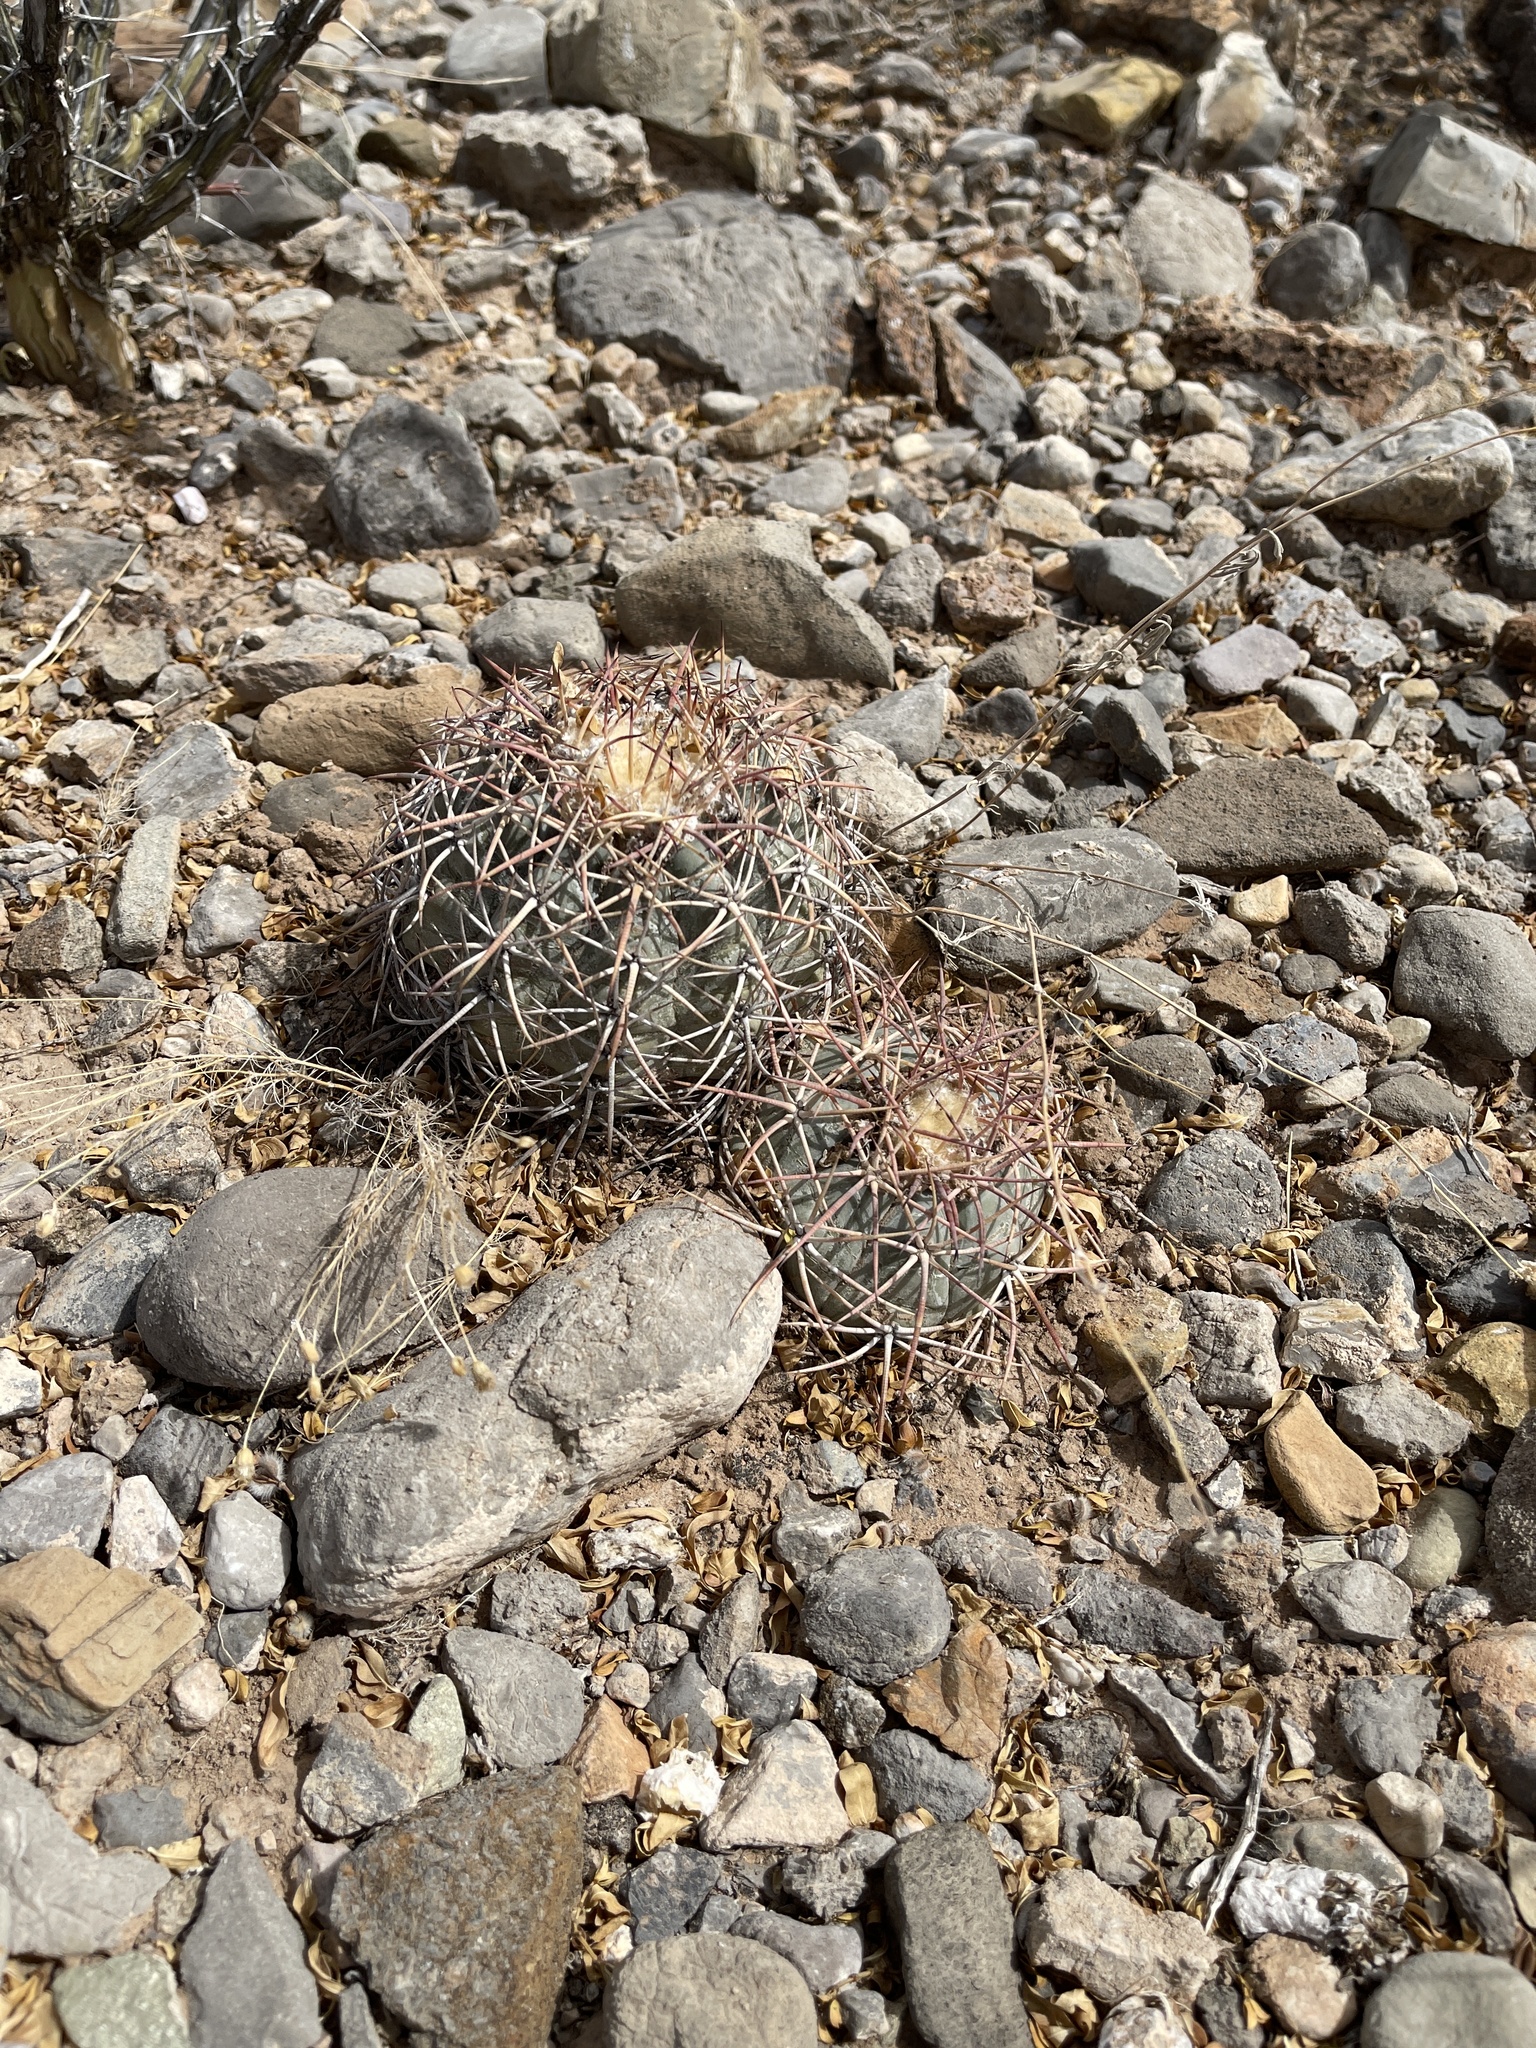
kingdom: Plantae
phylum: Tracheophyta
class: Magnoliopsida
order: Caryophyllales
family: Cactaceae
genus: Echinocactus
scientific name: Echinocactus horizonthalonius
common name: Devilshead
